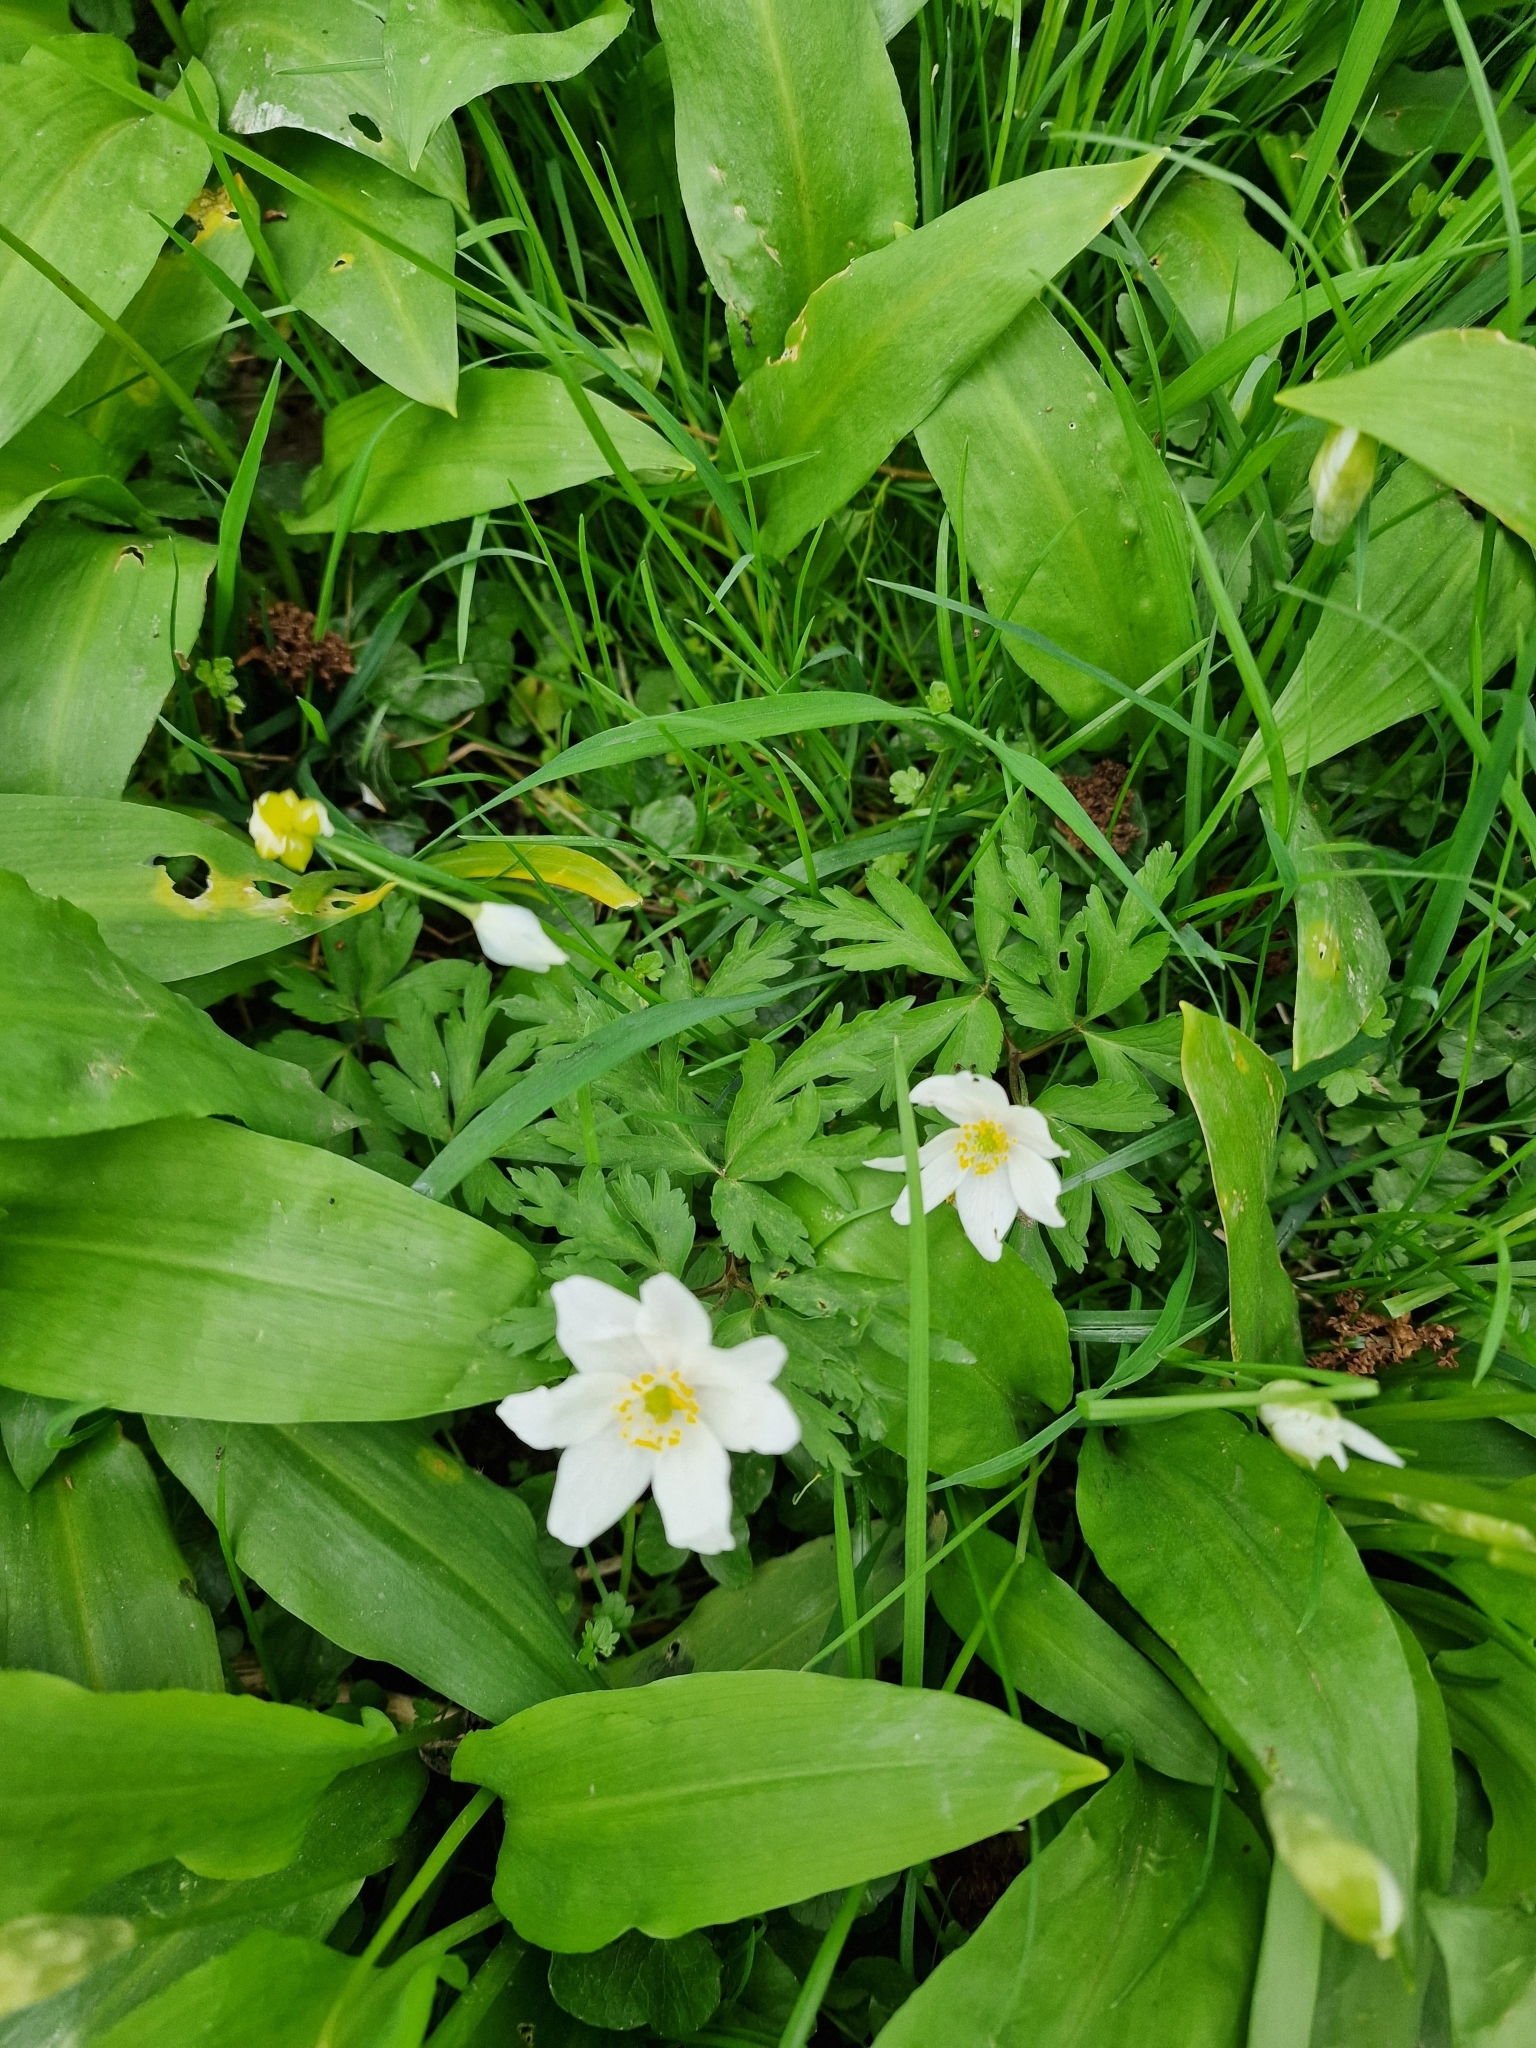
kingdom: Plantae
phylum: Tracheophyta
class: Magnoliopsida
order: Ranunculales
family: Ranunculaceae
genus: Anemone
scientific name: Anemone nemorosa
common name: Wood anemone
